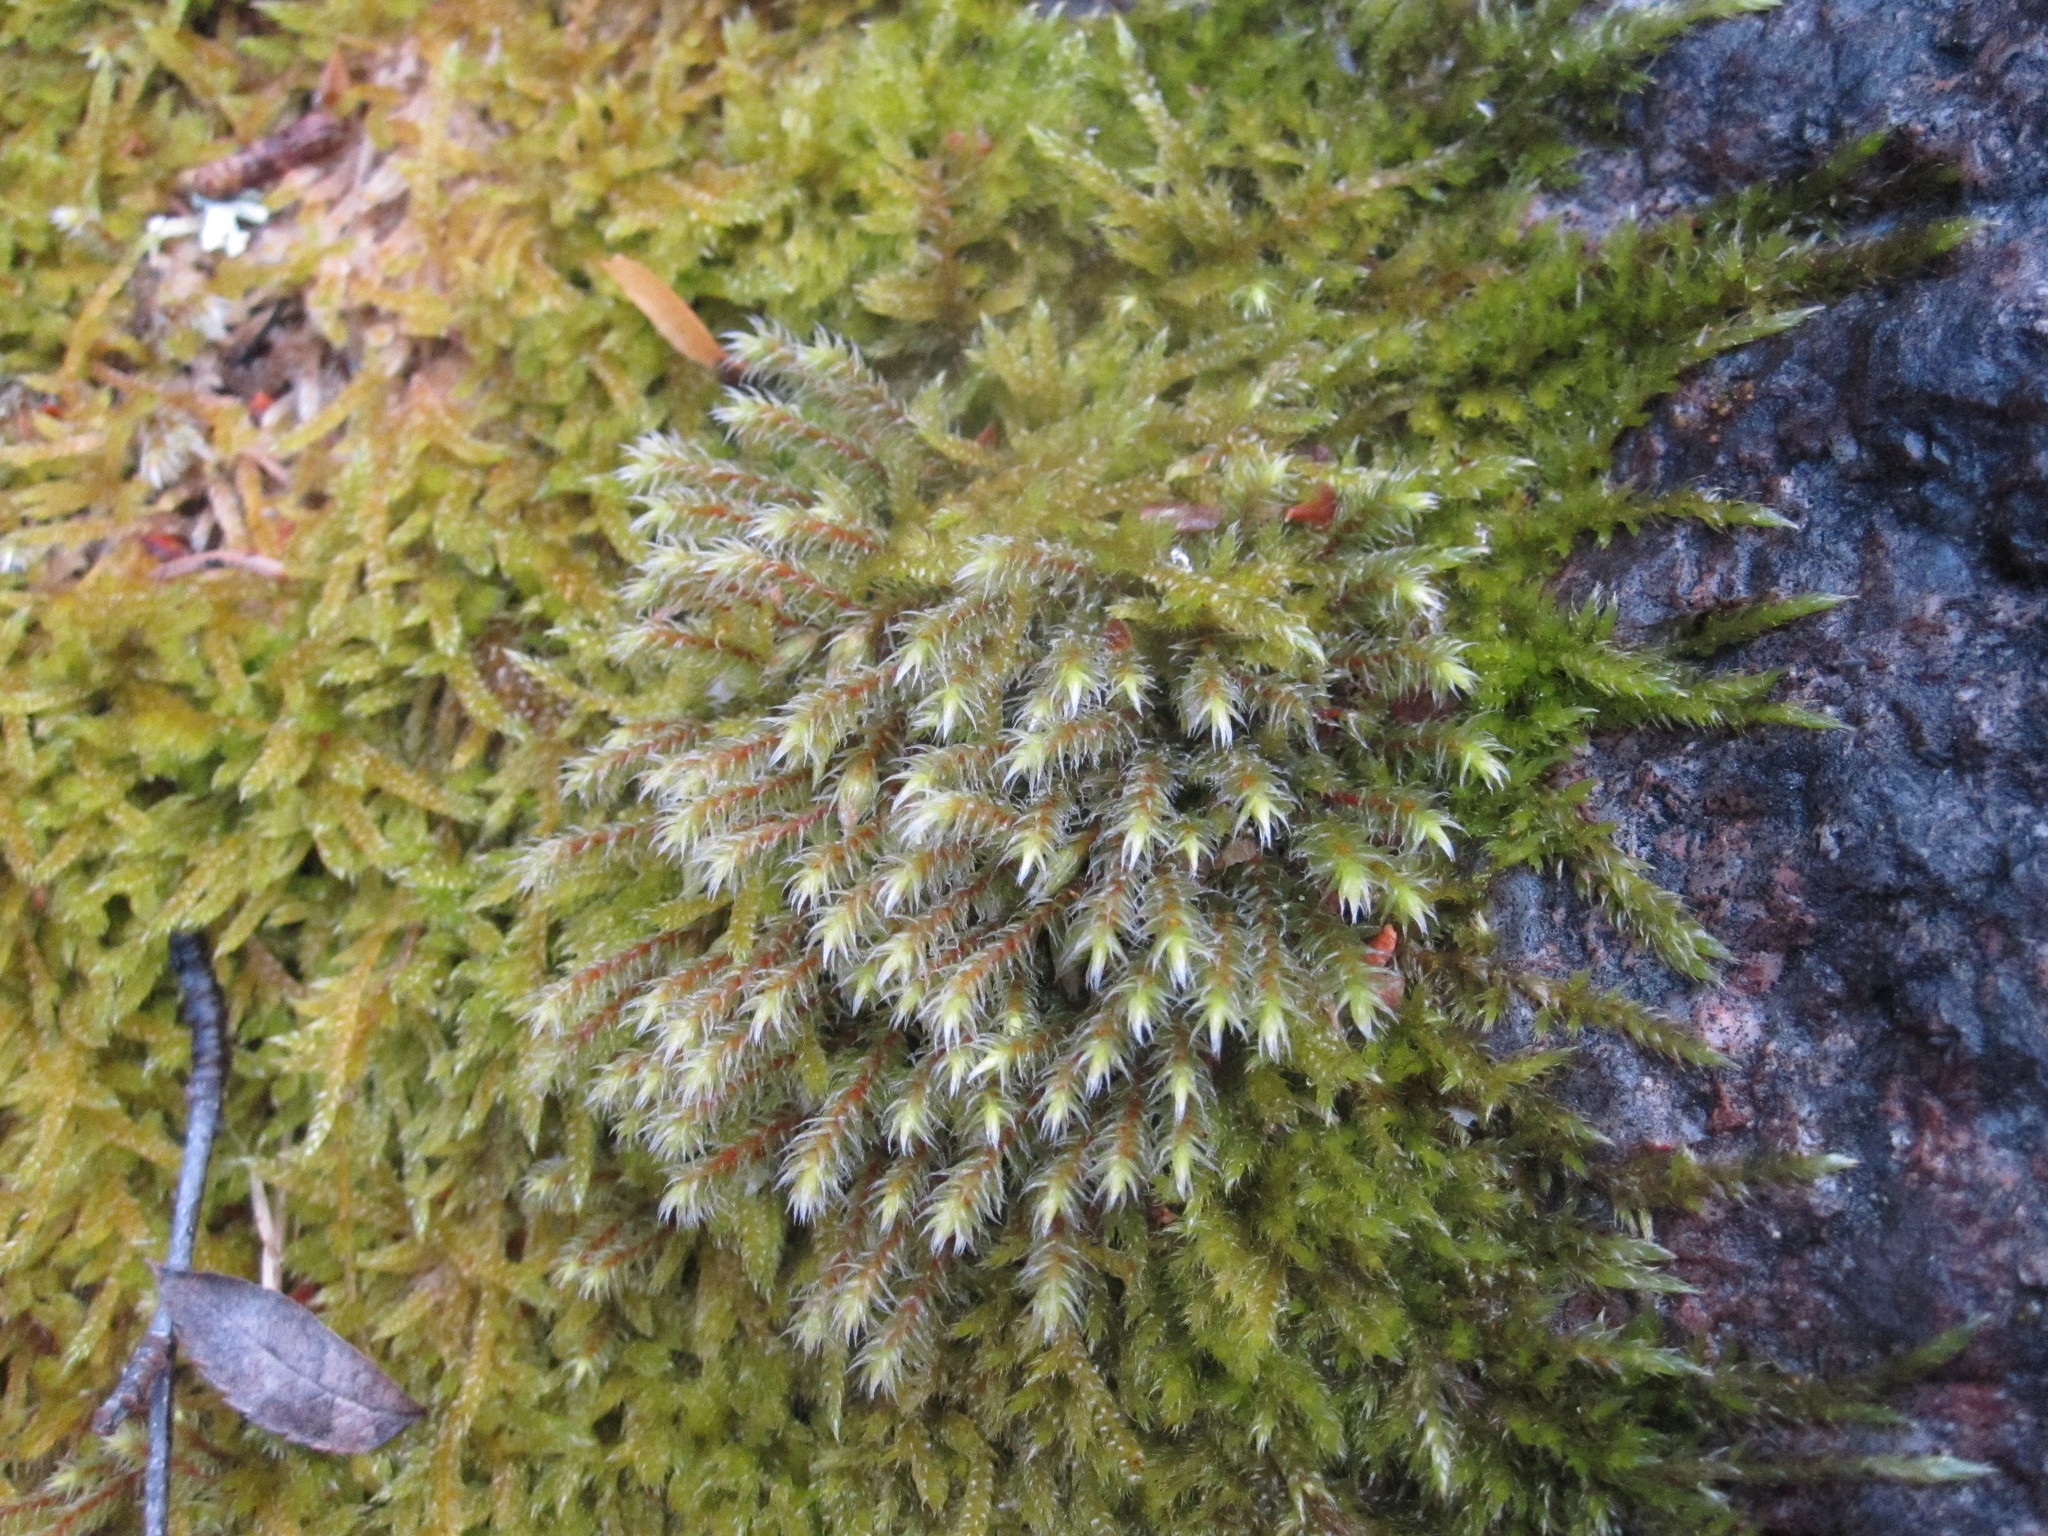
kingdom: Plantae
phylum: Bryophyta
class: Bryopsida
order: Hedwigiales
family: Hedwigiaceae
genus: Hedwigia
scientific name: Hedwigia stellata
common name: Starry hoar-moss
